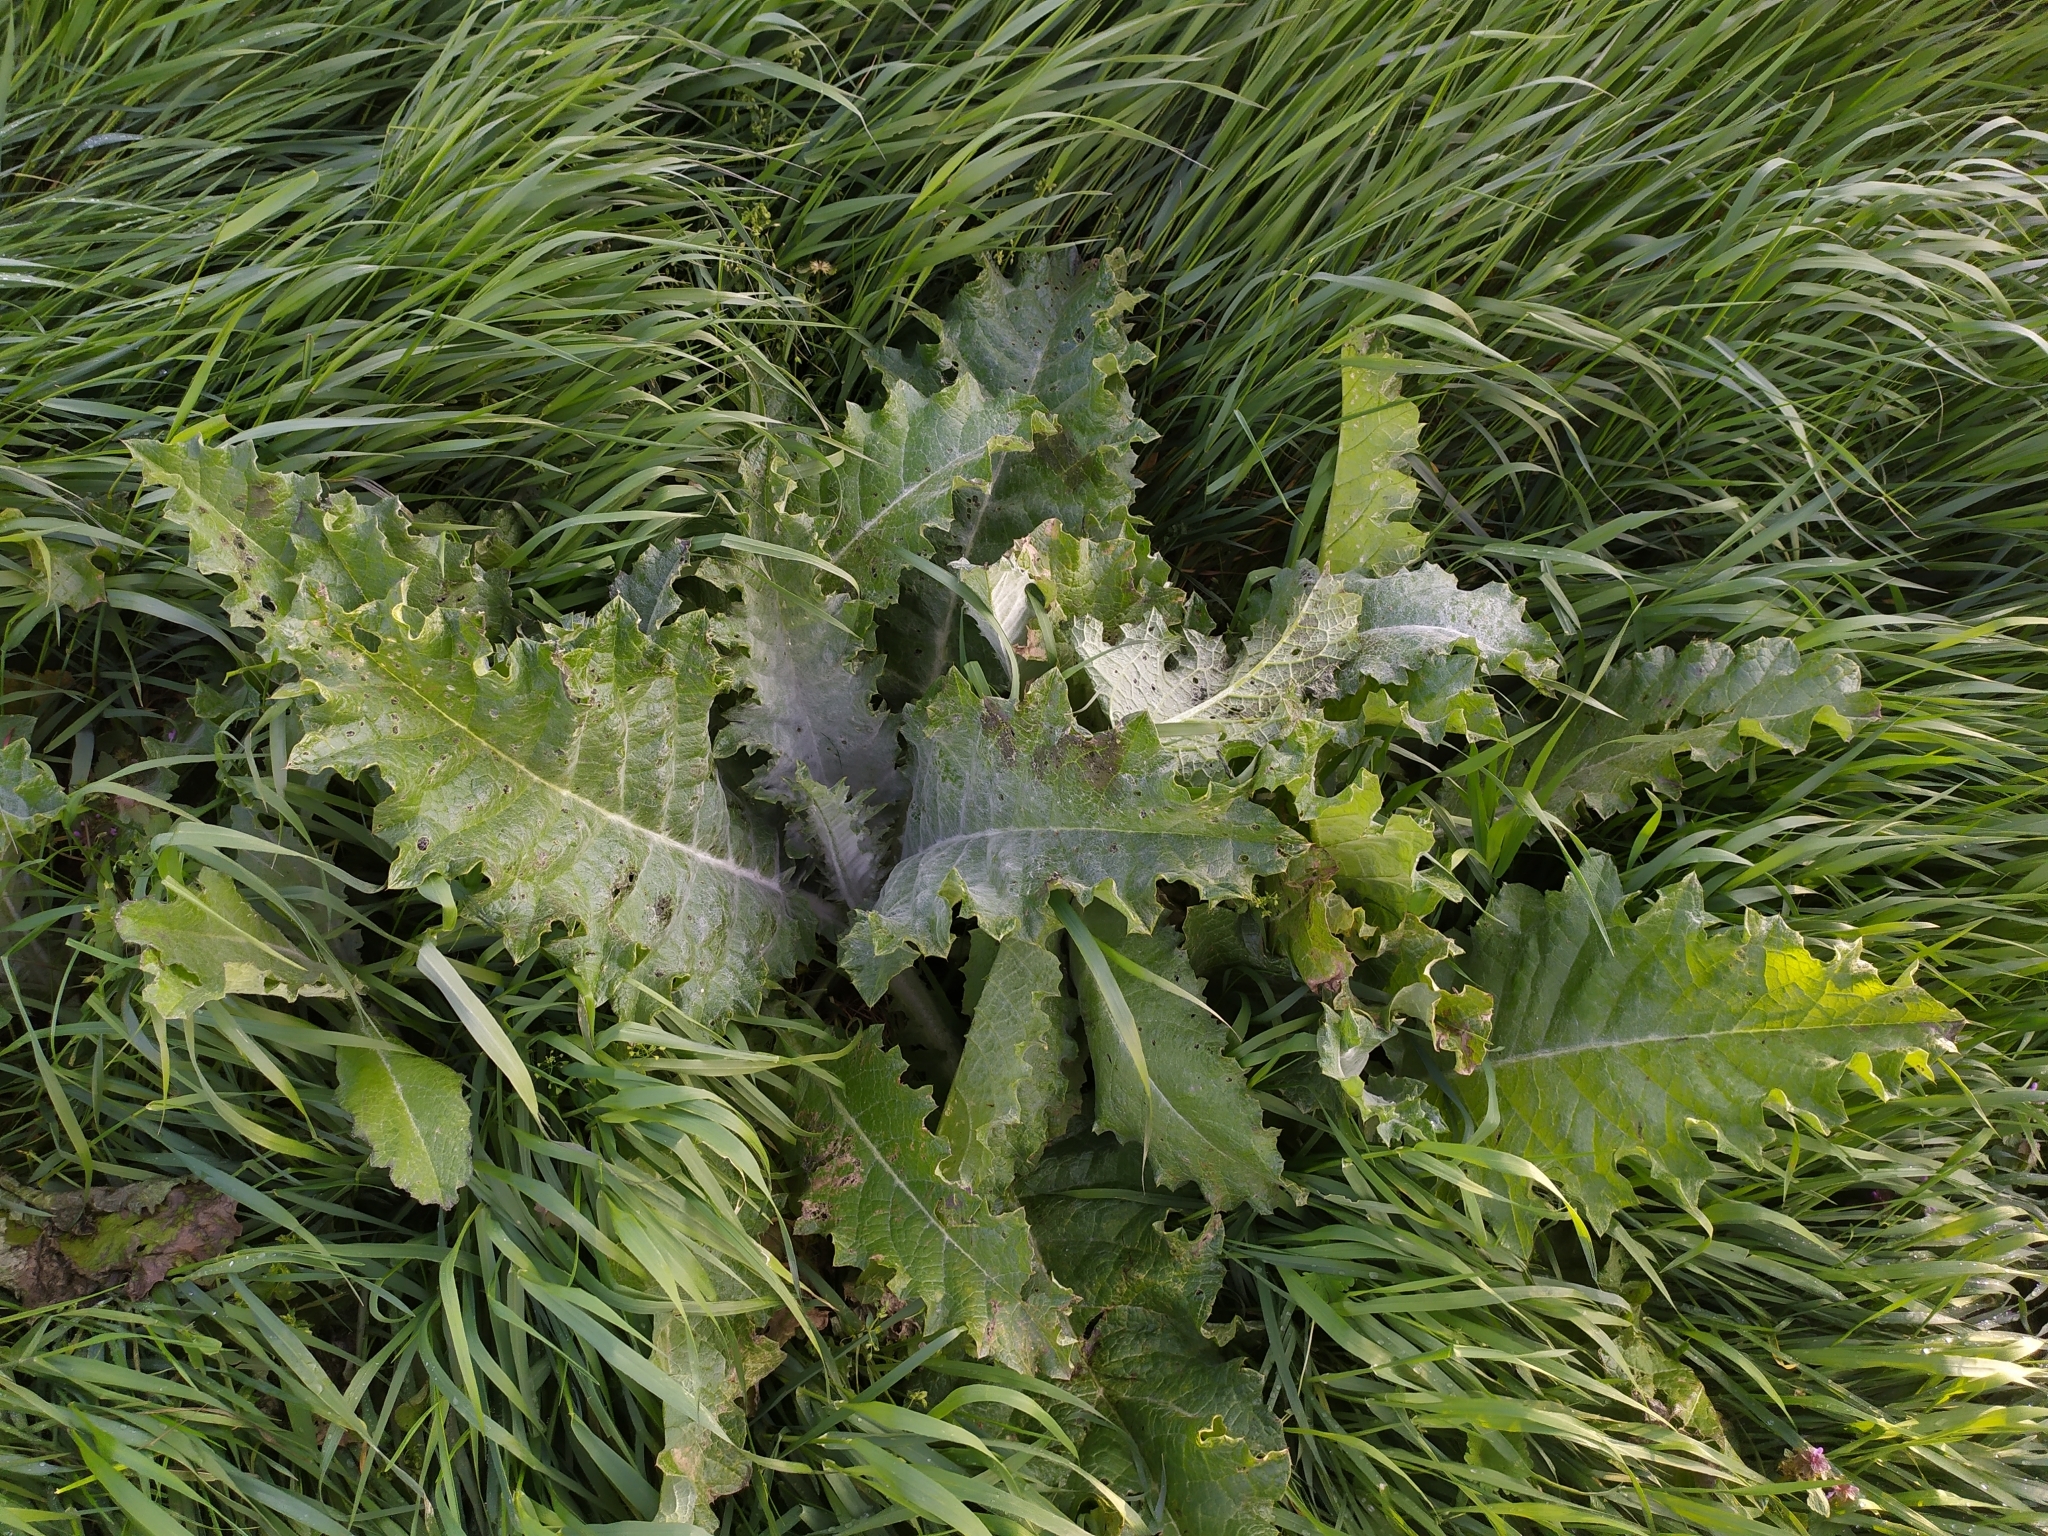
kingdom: Plantae
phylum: Tracheophyta
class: Magnoliopsida
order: Asterales
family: Asteraceae
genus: Onopordum
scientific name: Onopordum acanthium
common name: Scotch thistle
